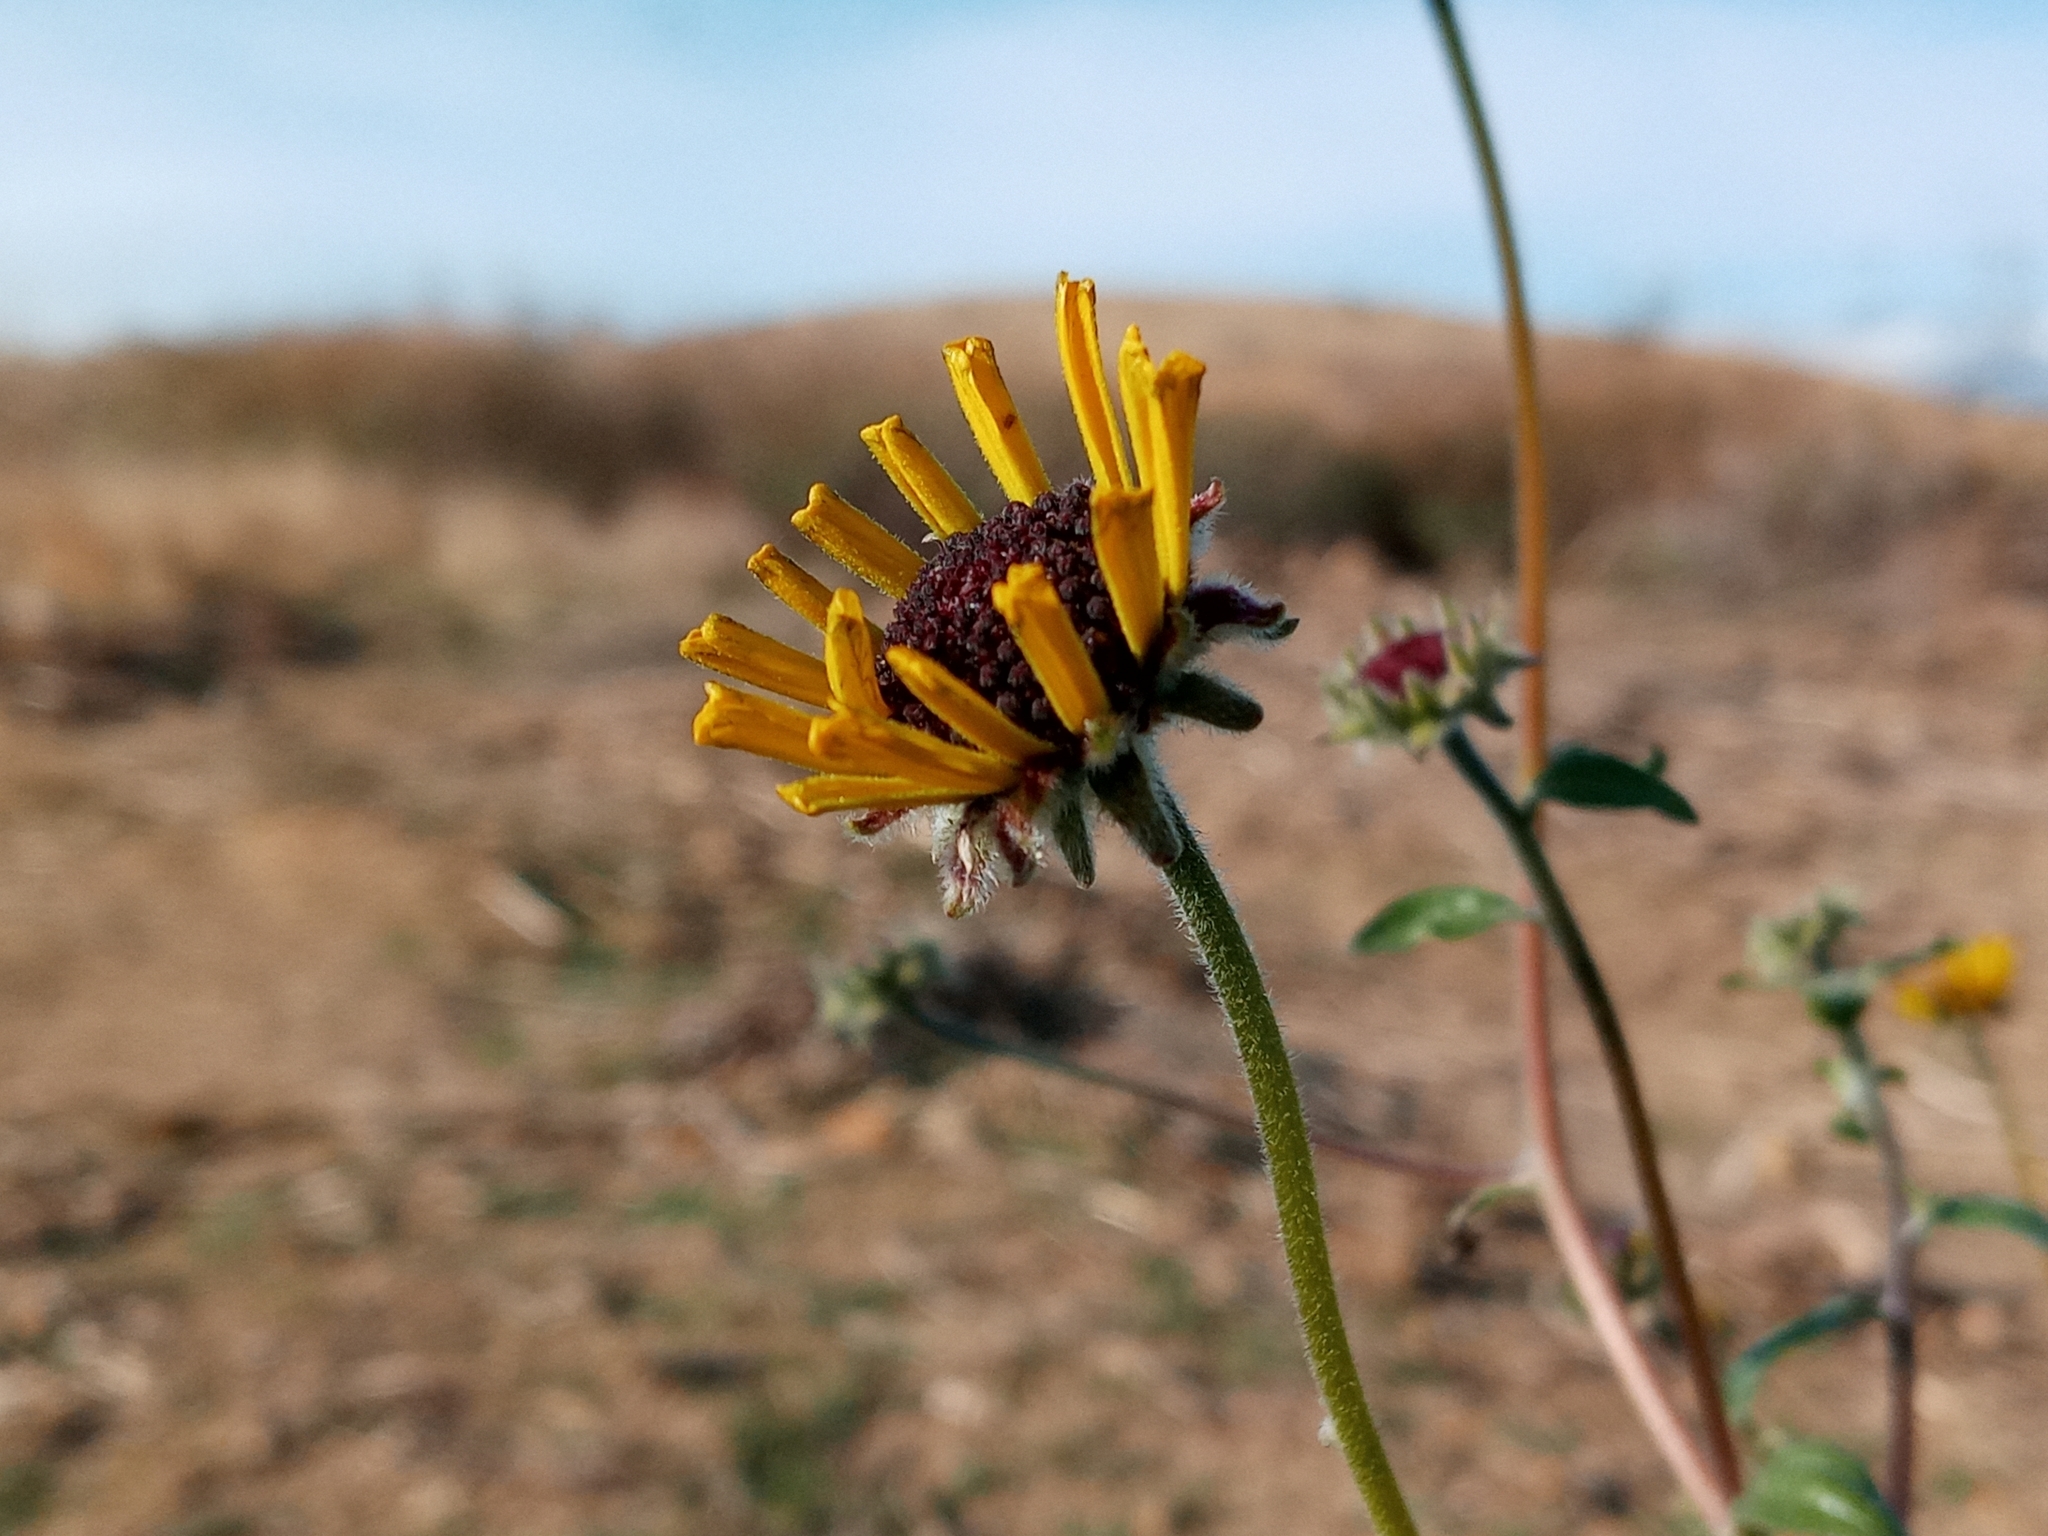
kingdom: Plantae
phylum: Tracheophyta
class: Magnoliopsida
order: Asterales
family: Asteraceae
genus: Encelia
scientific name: Encelia californica
